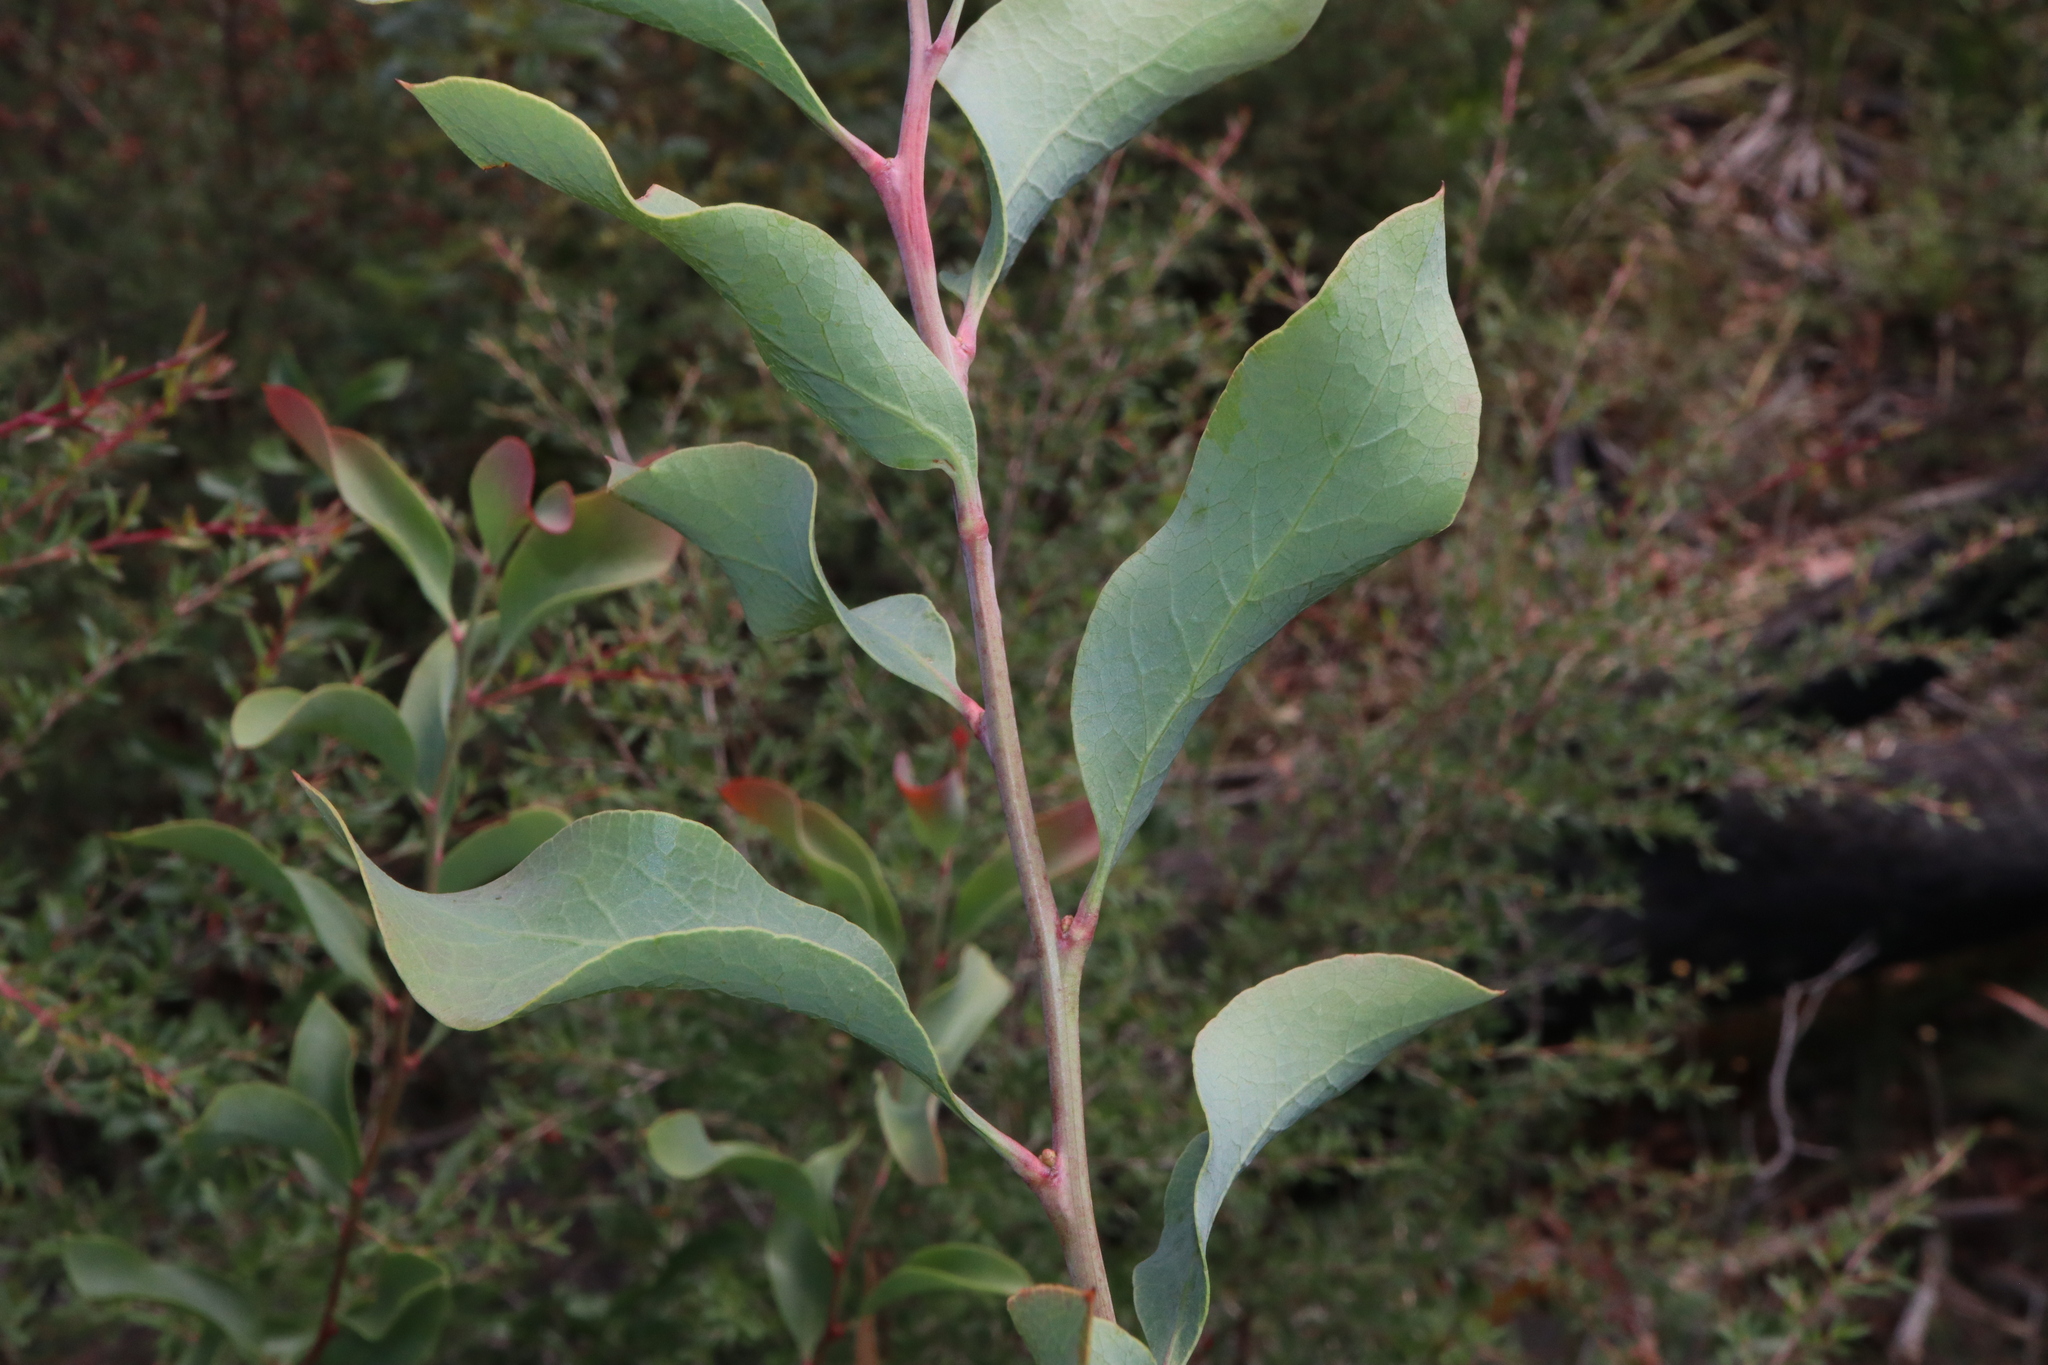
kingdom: Plantae
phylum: Tracheophyta
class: Magnoliopsida
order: Fabales
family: Fabaceae
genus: Daviesia
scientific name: Daviesia latifolia
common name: Hop bitter-pea
